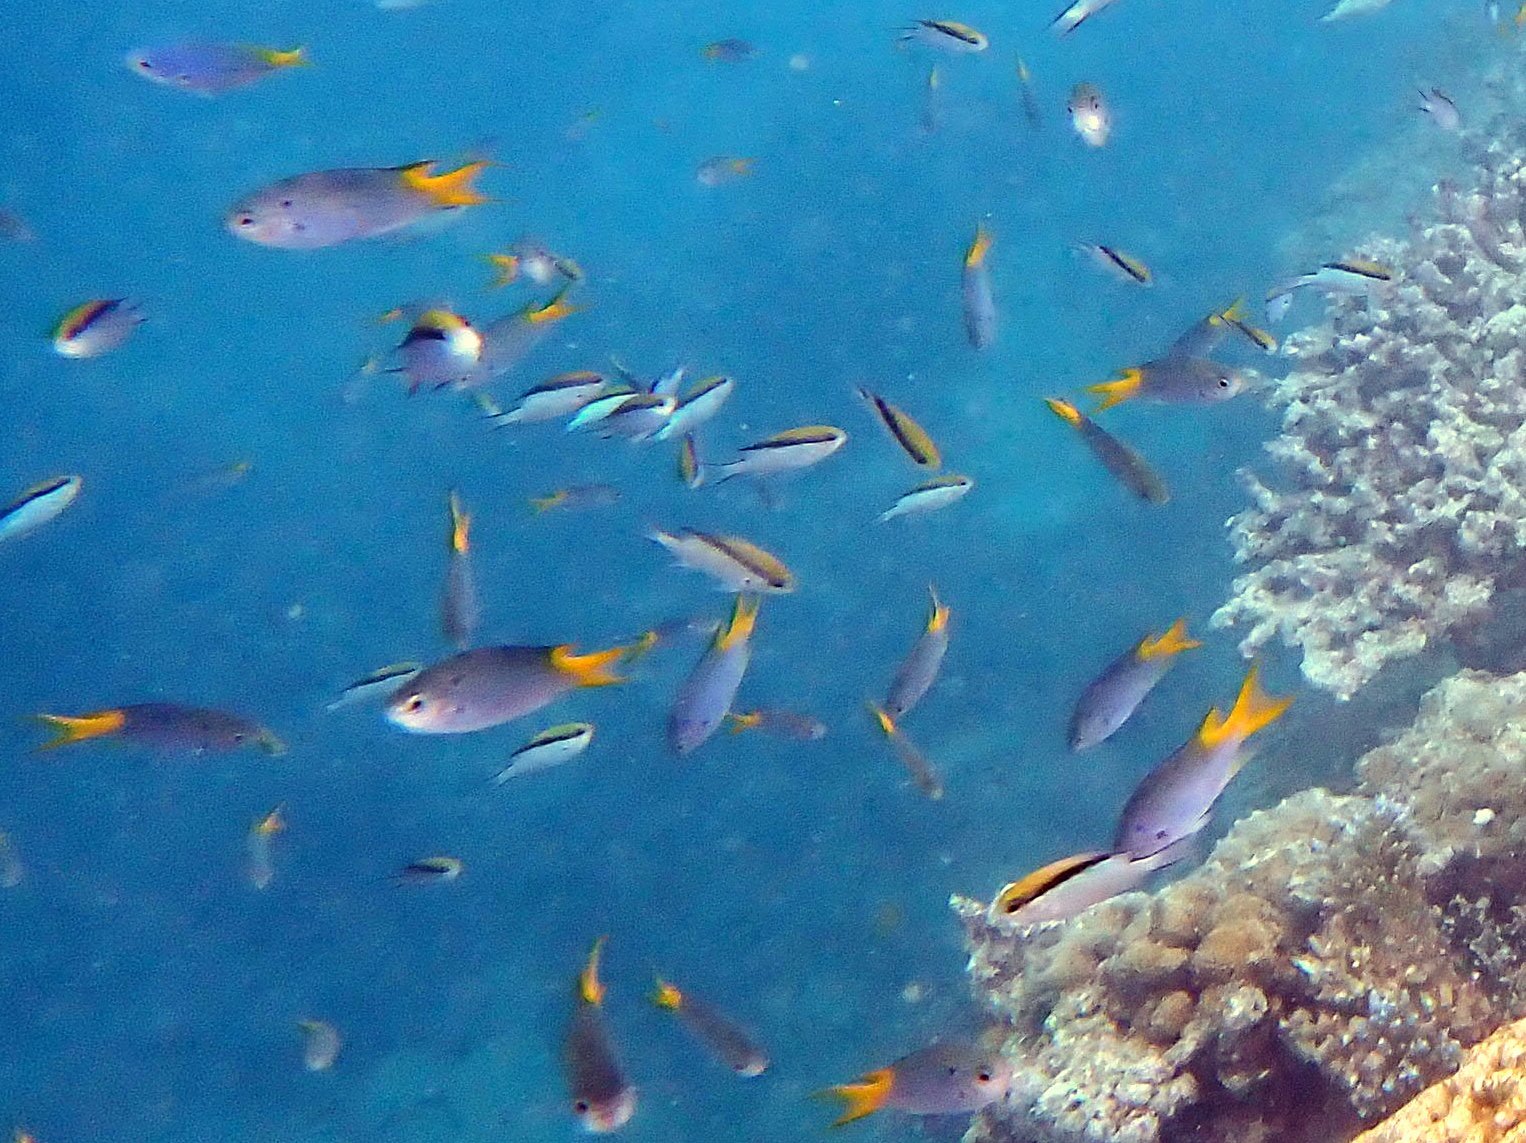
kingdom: Animalia
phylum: Chordata
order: Perciformes
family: Pomacentridae
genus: Neopomacentrus
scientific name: Neopomacentrus azysron
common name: Yellow-tail damsel
